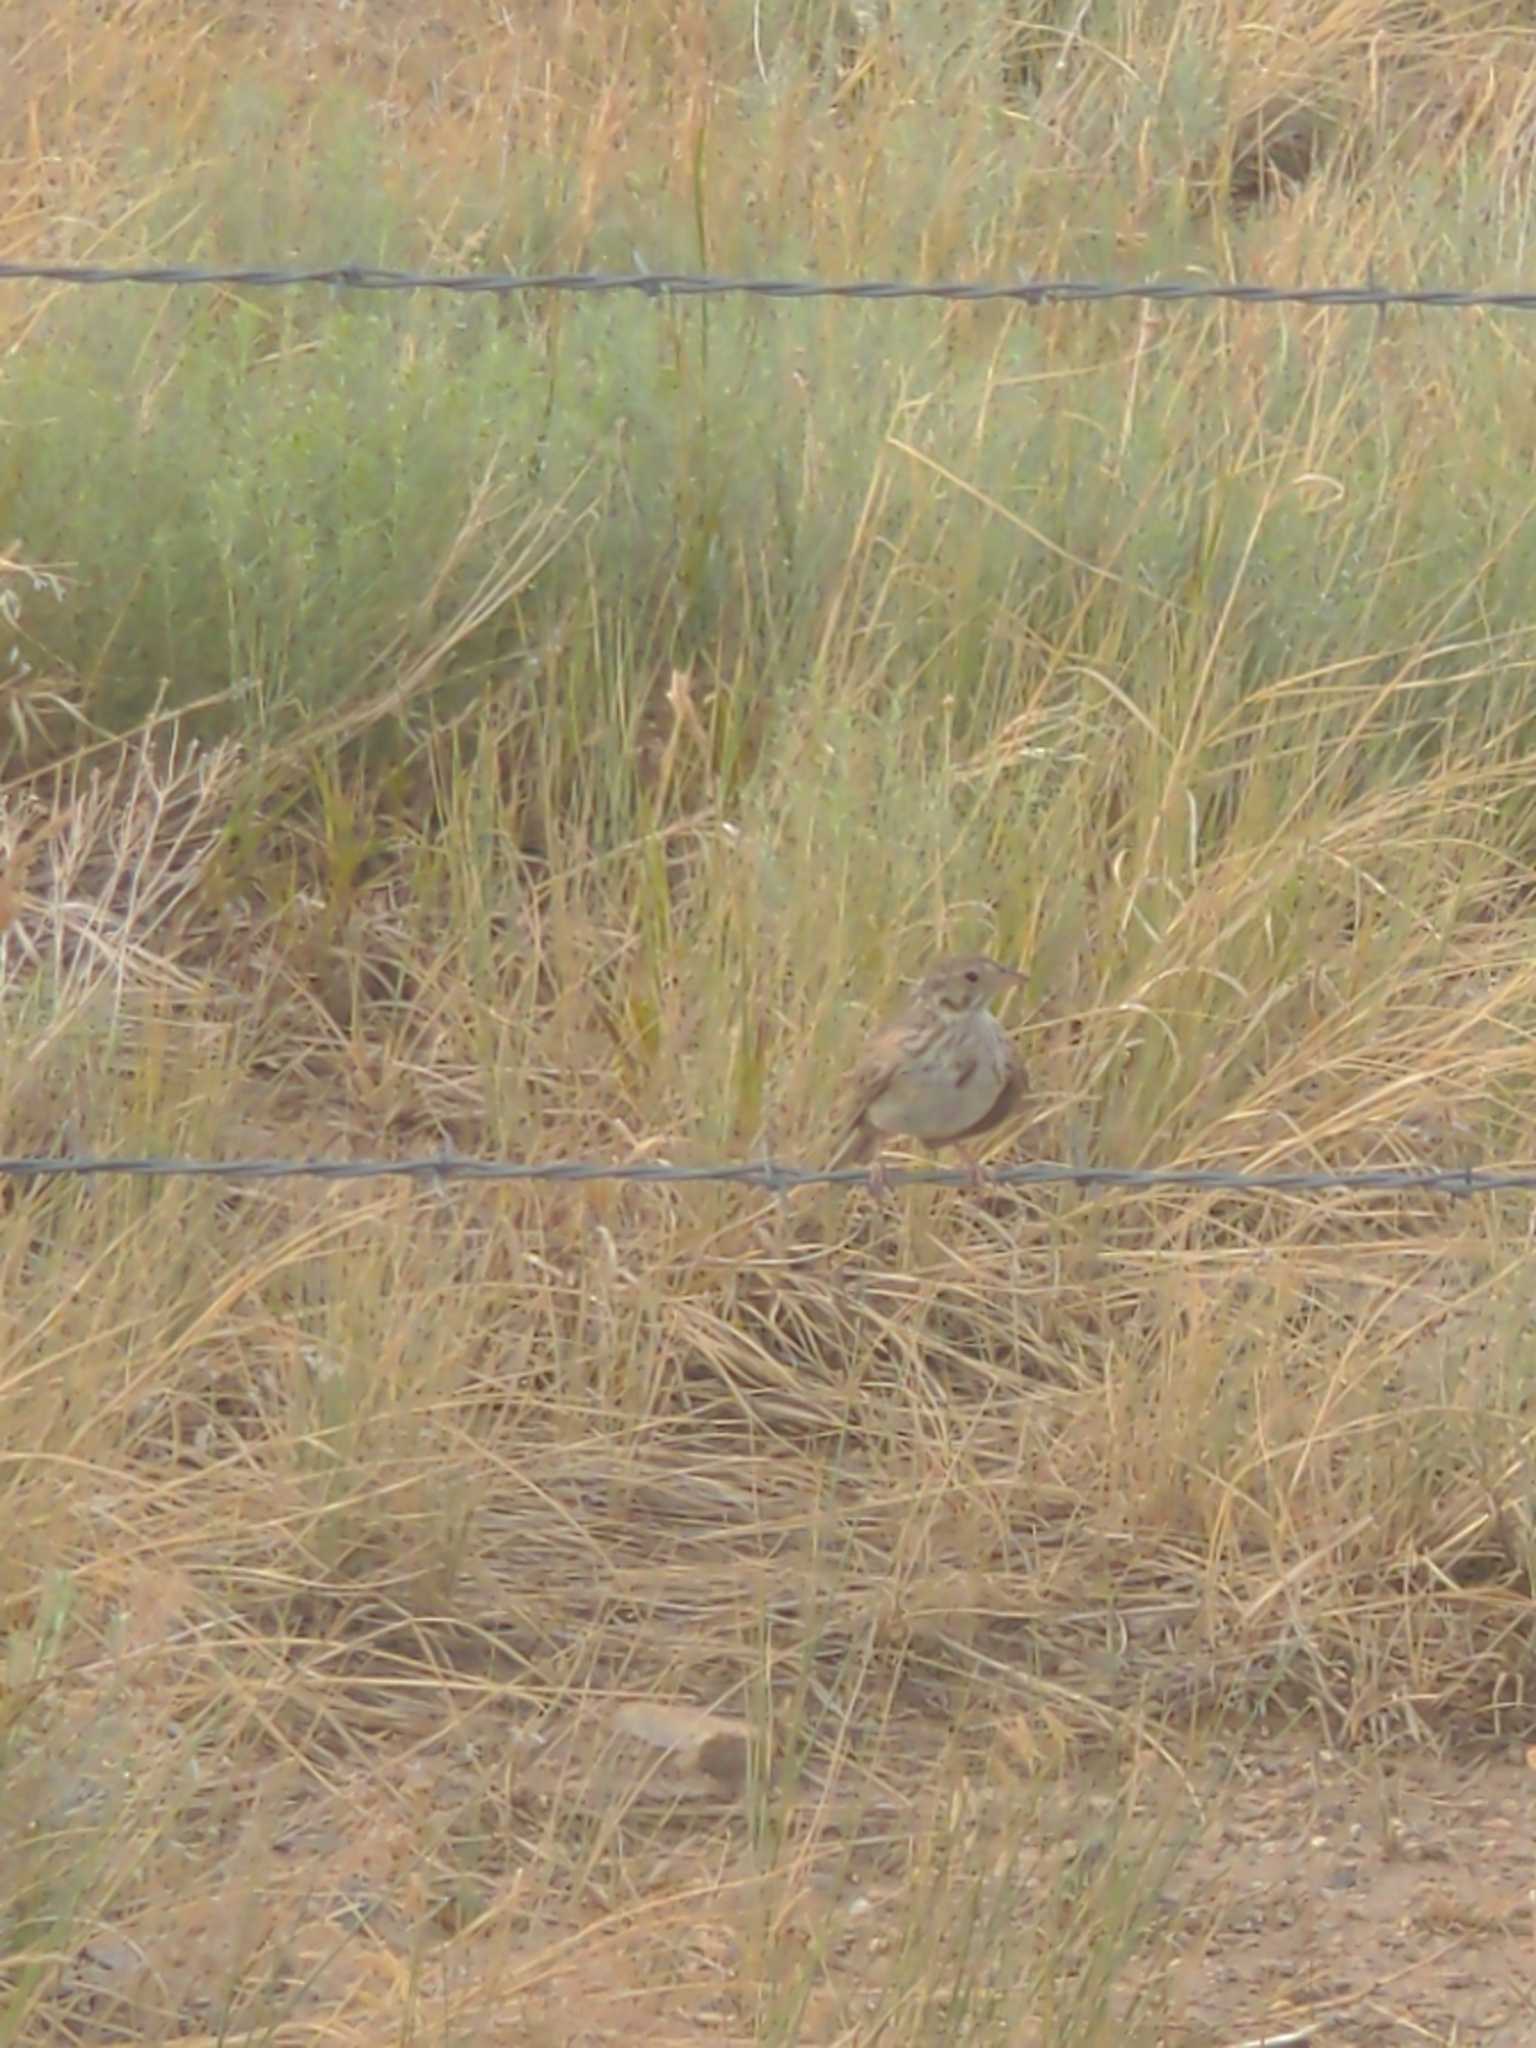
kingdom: Animalia
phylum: Chordata
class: Aves
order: Passeriformes
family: Passerellidae
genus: Pooecetes
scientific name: Pooecetes gramineus
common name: Vesper sparrow
